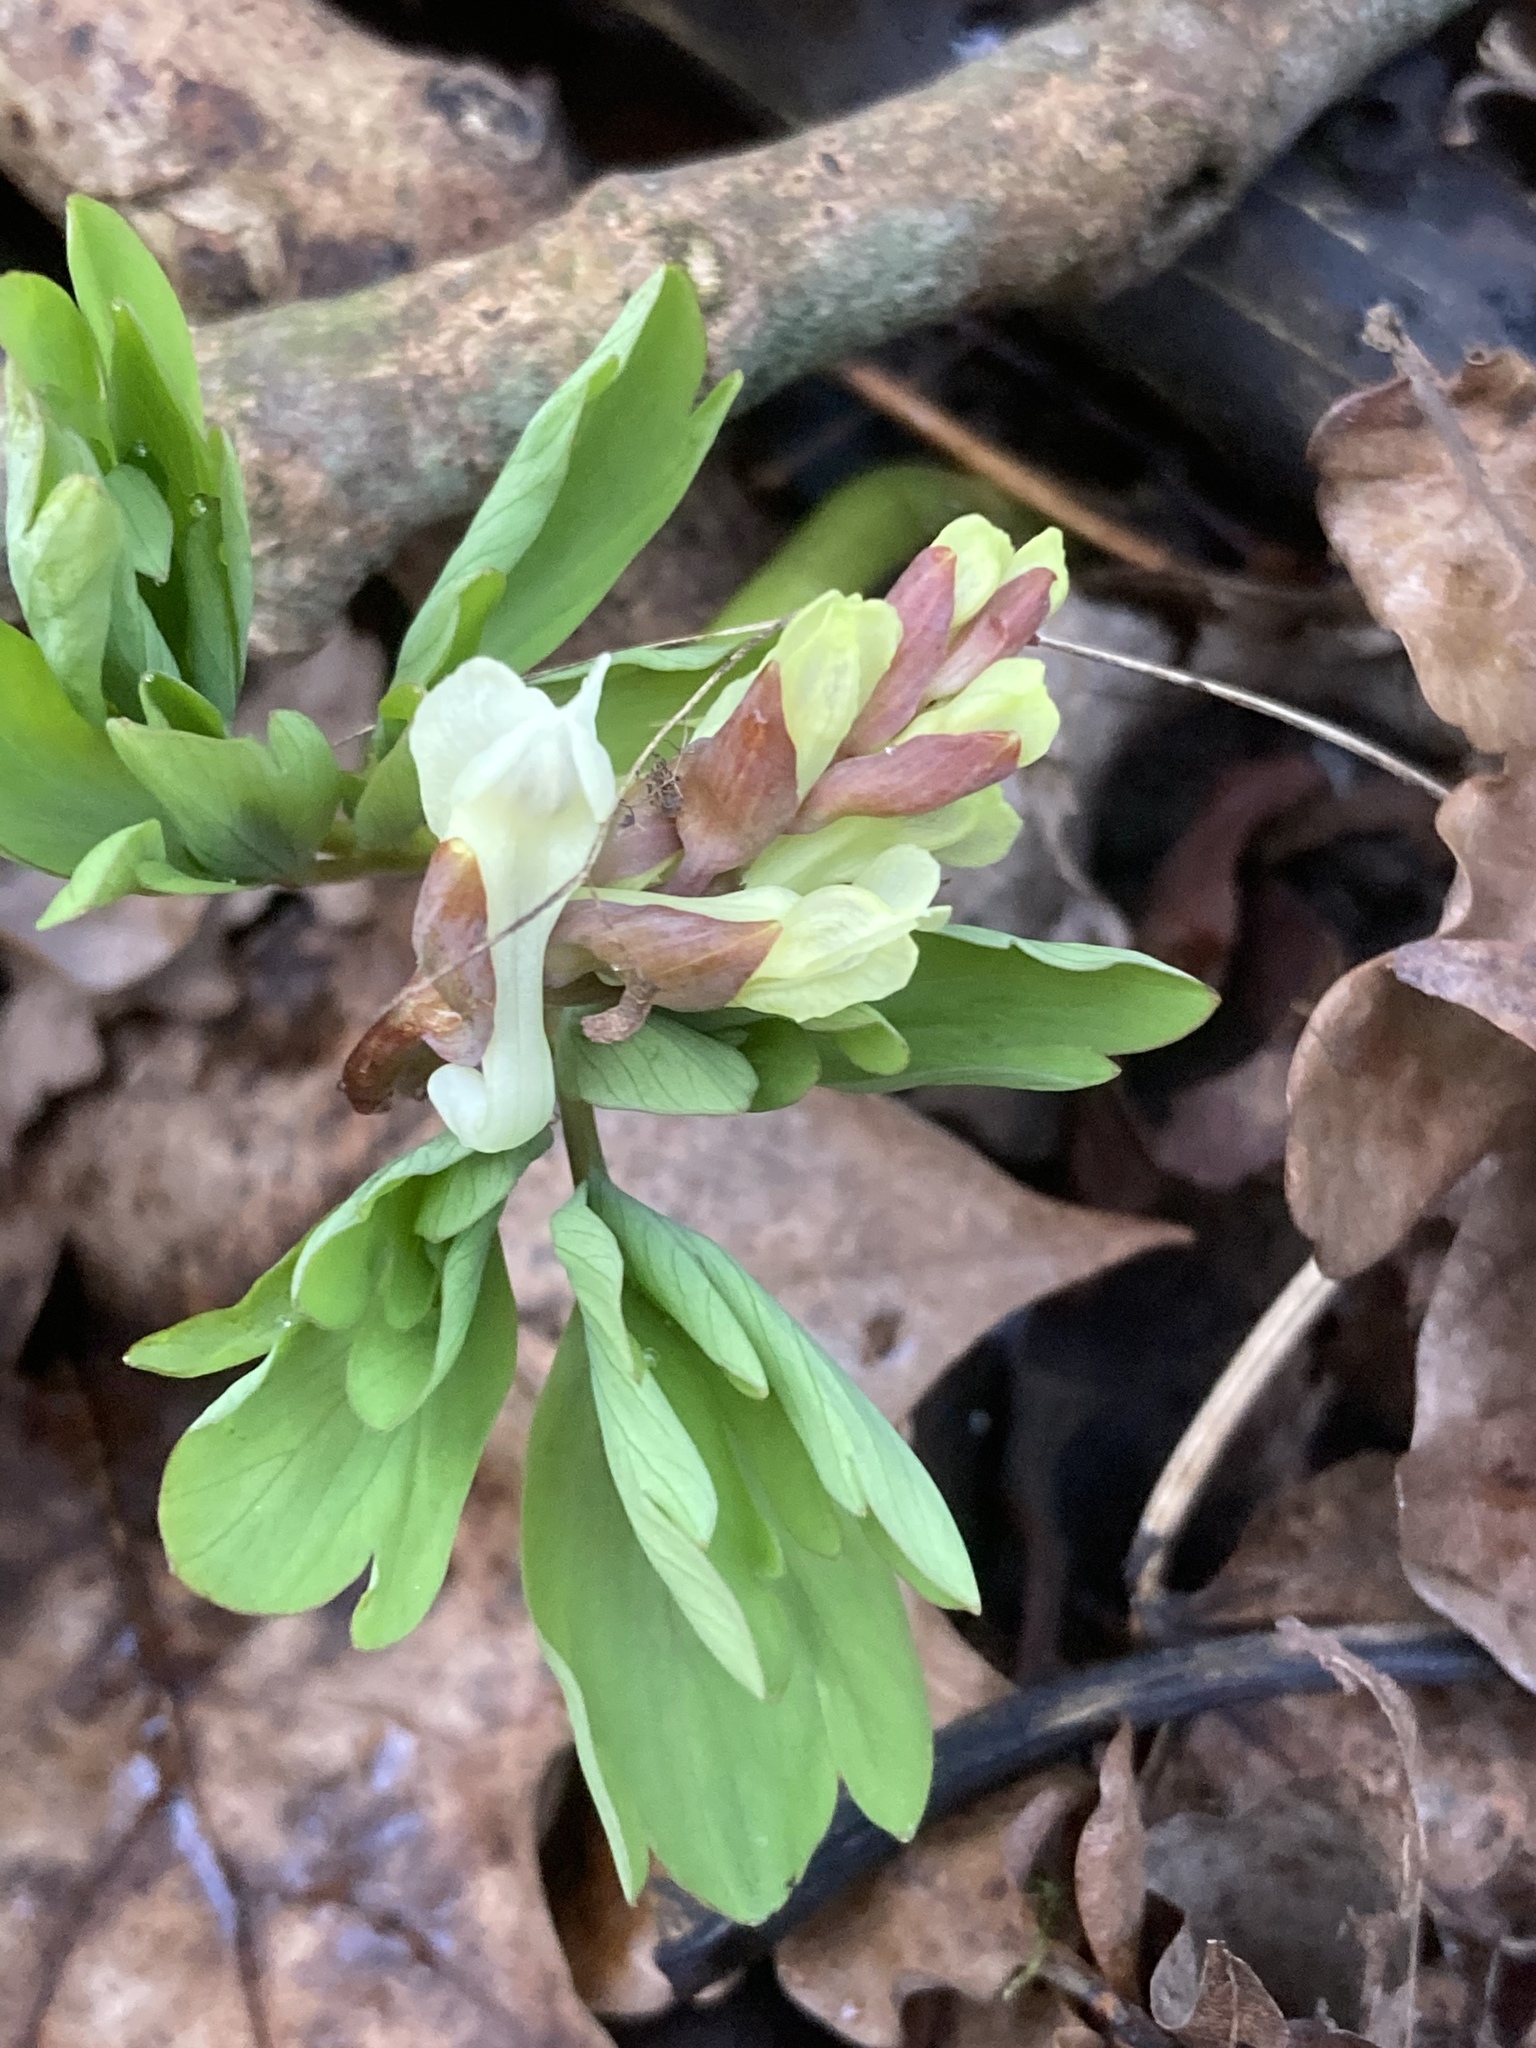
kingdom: Plantae
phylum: Tracheophyta
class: Magnoliopsida
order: Ranunculales
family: Papaveraceae
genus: Corydalis
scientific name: Corydalis cava
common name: Hollowroot
